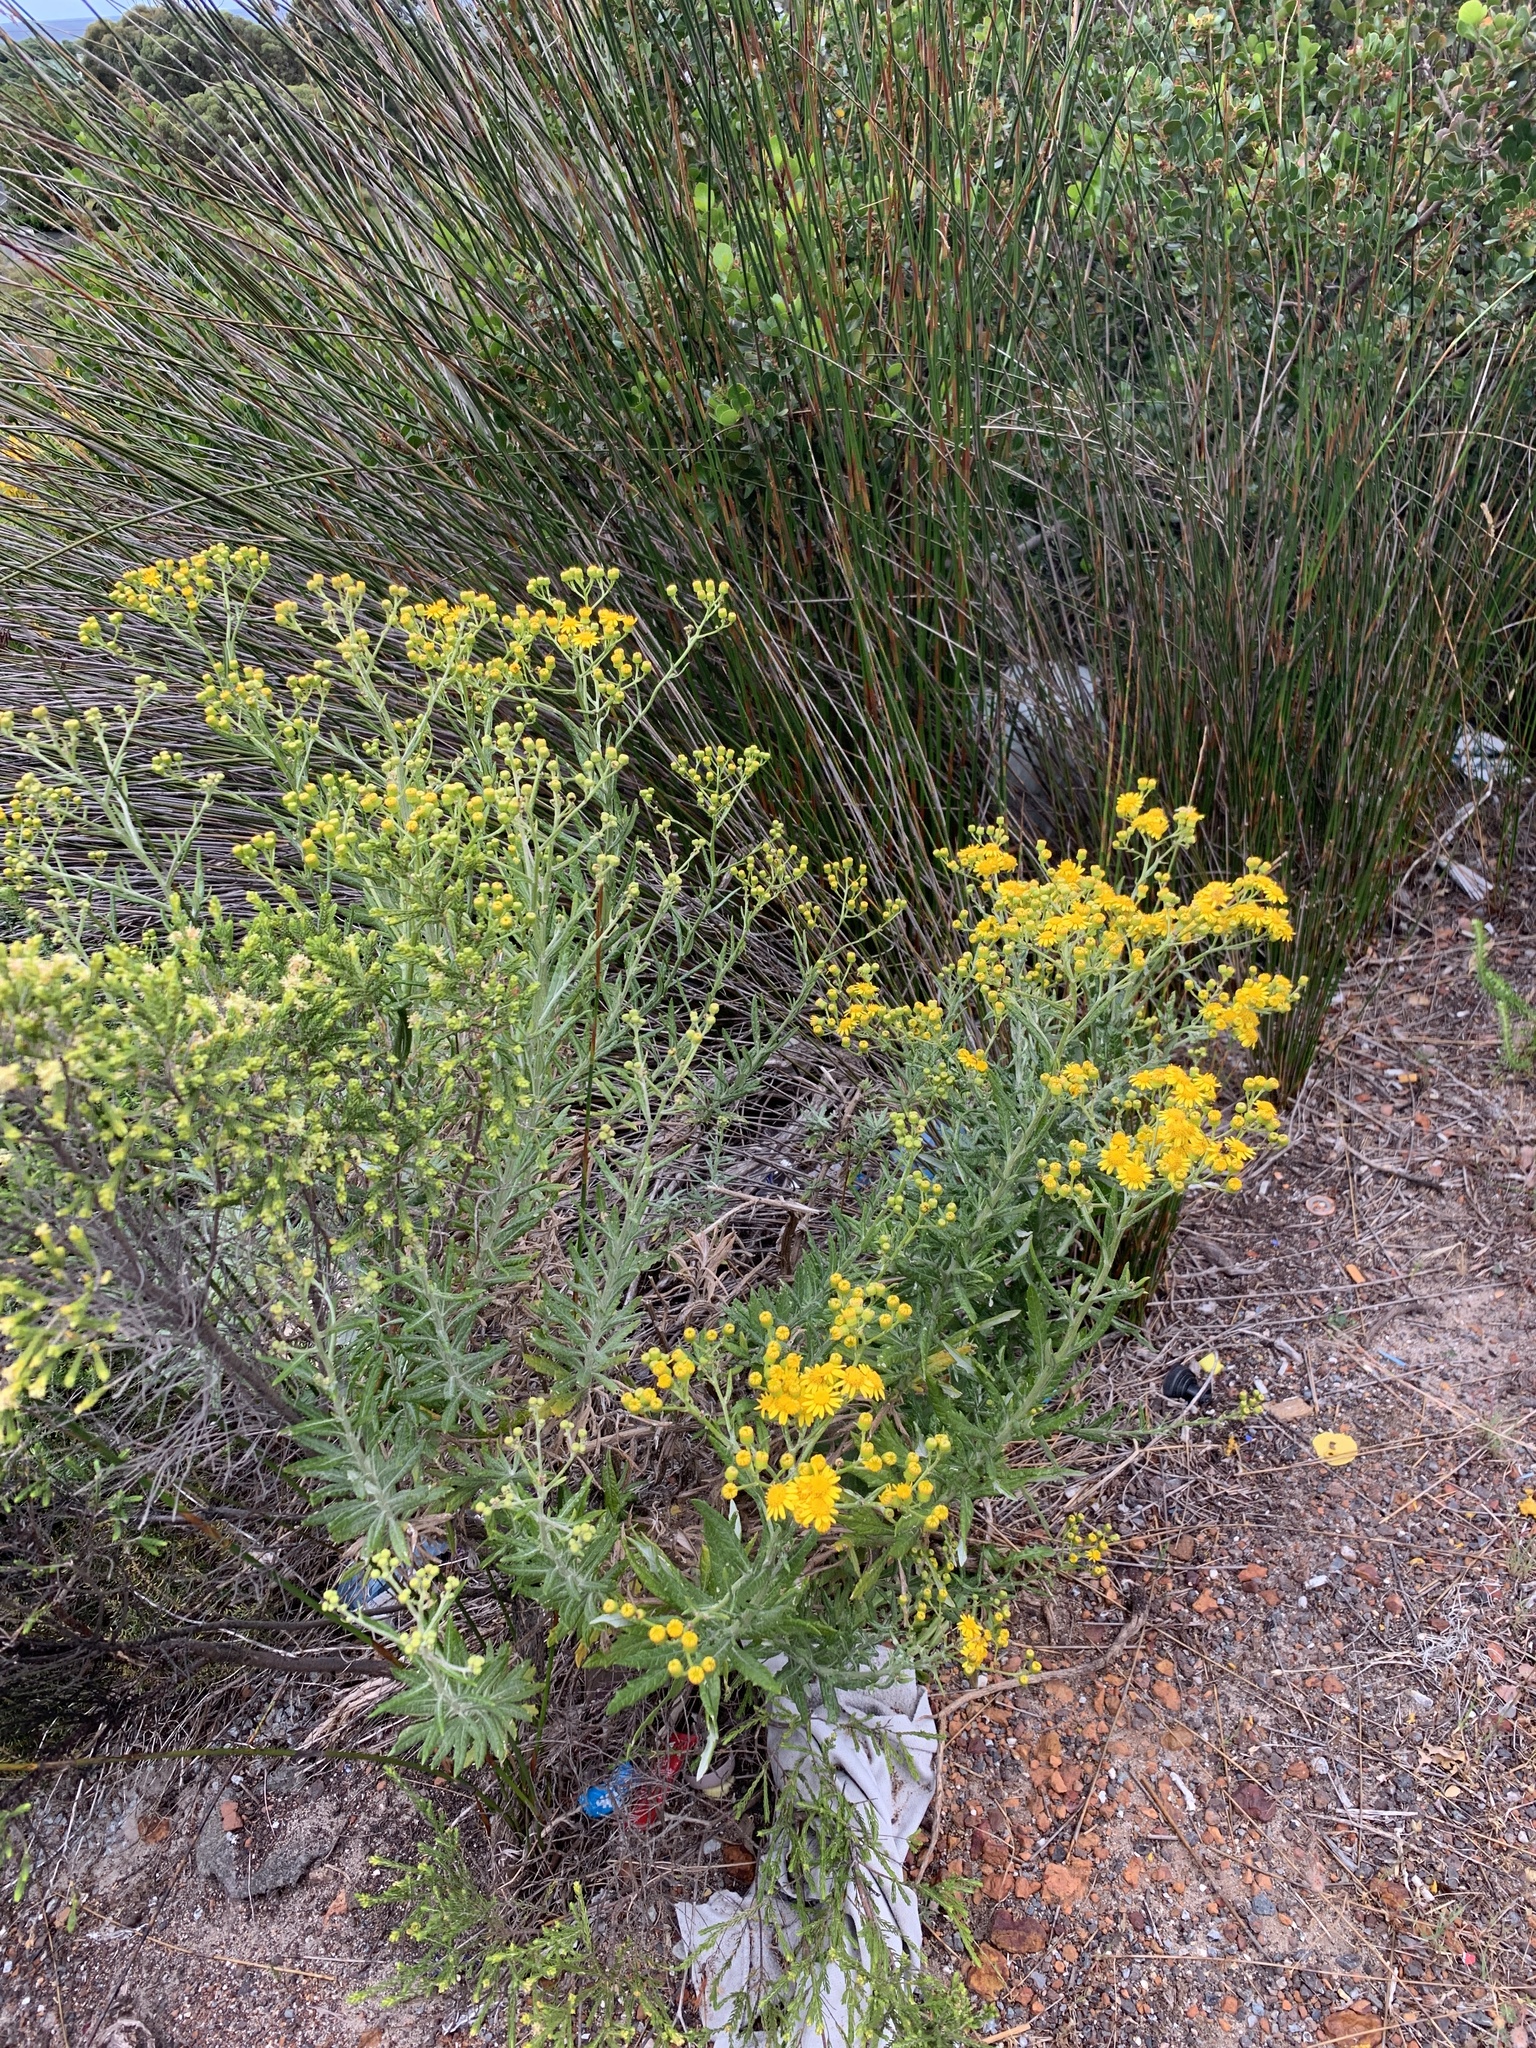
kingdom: Plantae
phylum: Tracheophyta
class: Magnoliopsida
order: Asterales
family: Asteraceae
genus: Senecio
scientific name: Senecio pterophorus
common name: Shoddy ragwort
